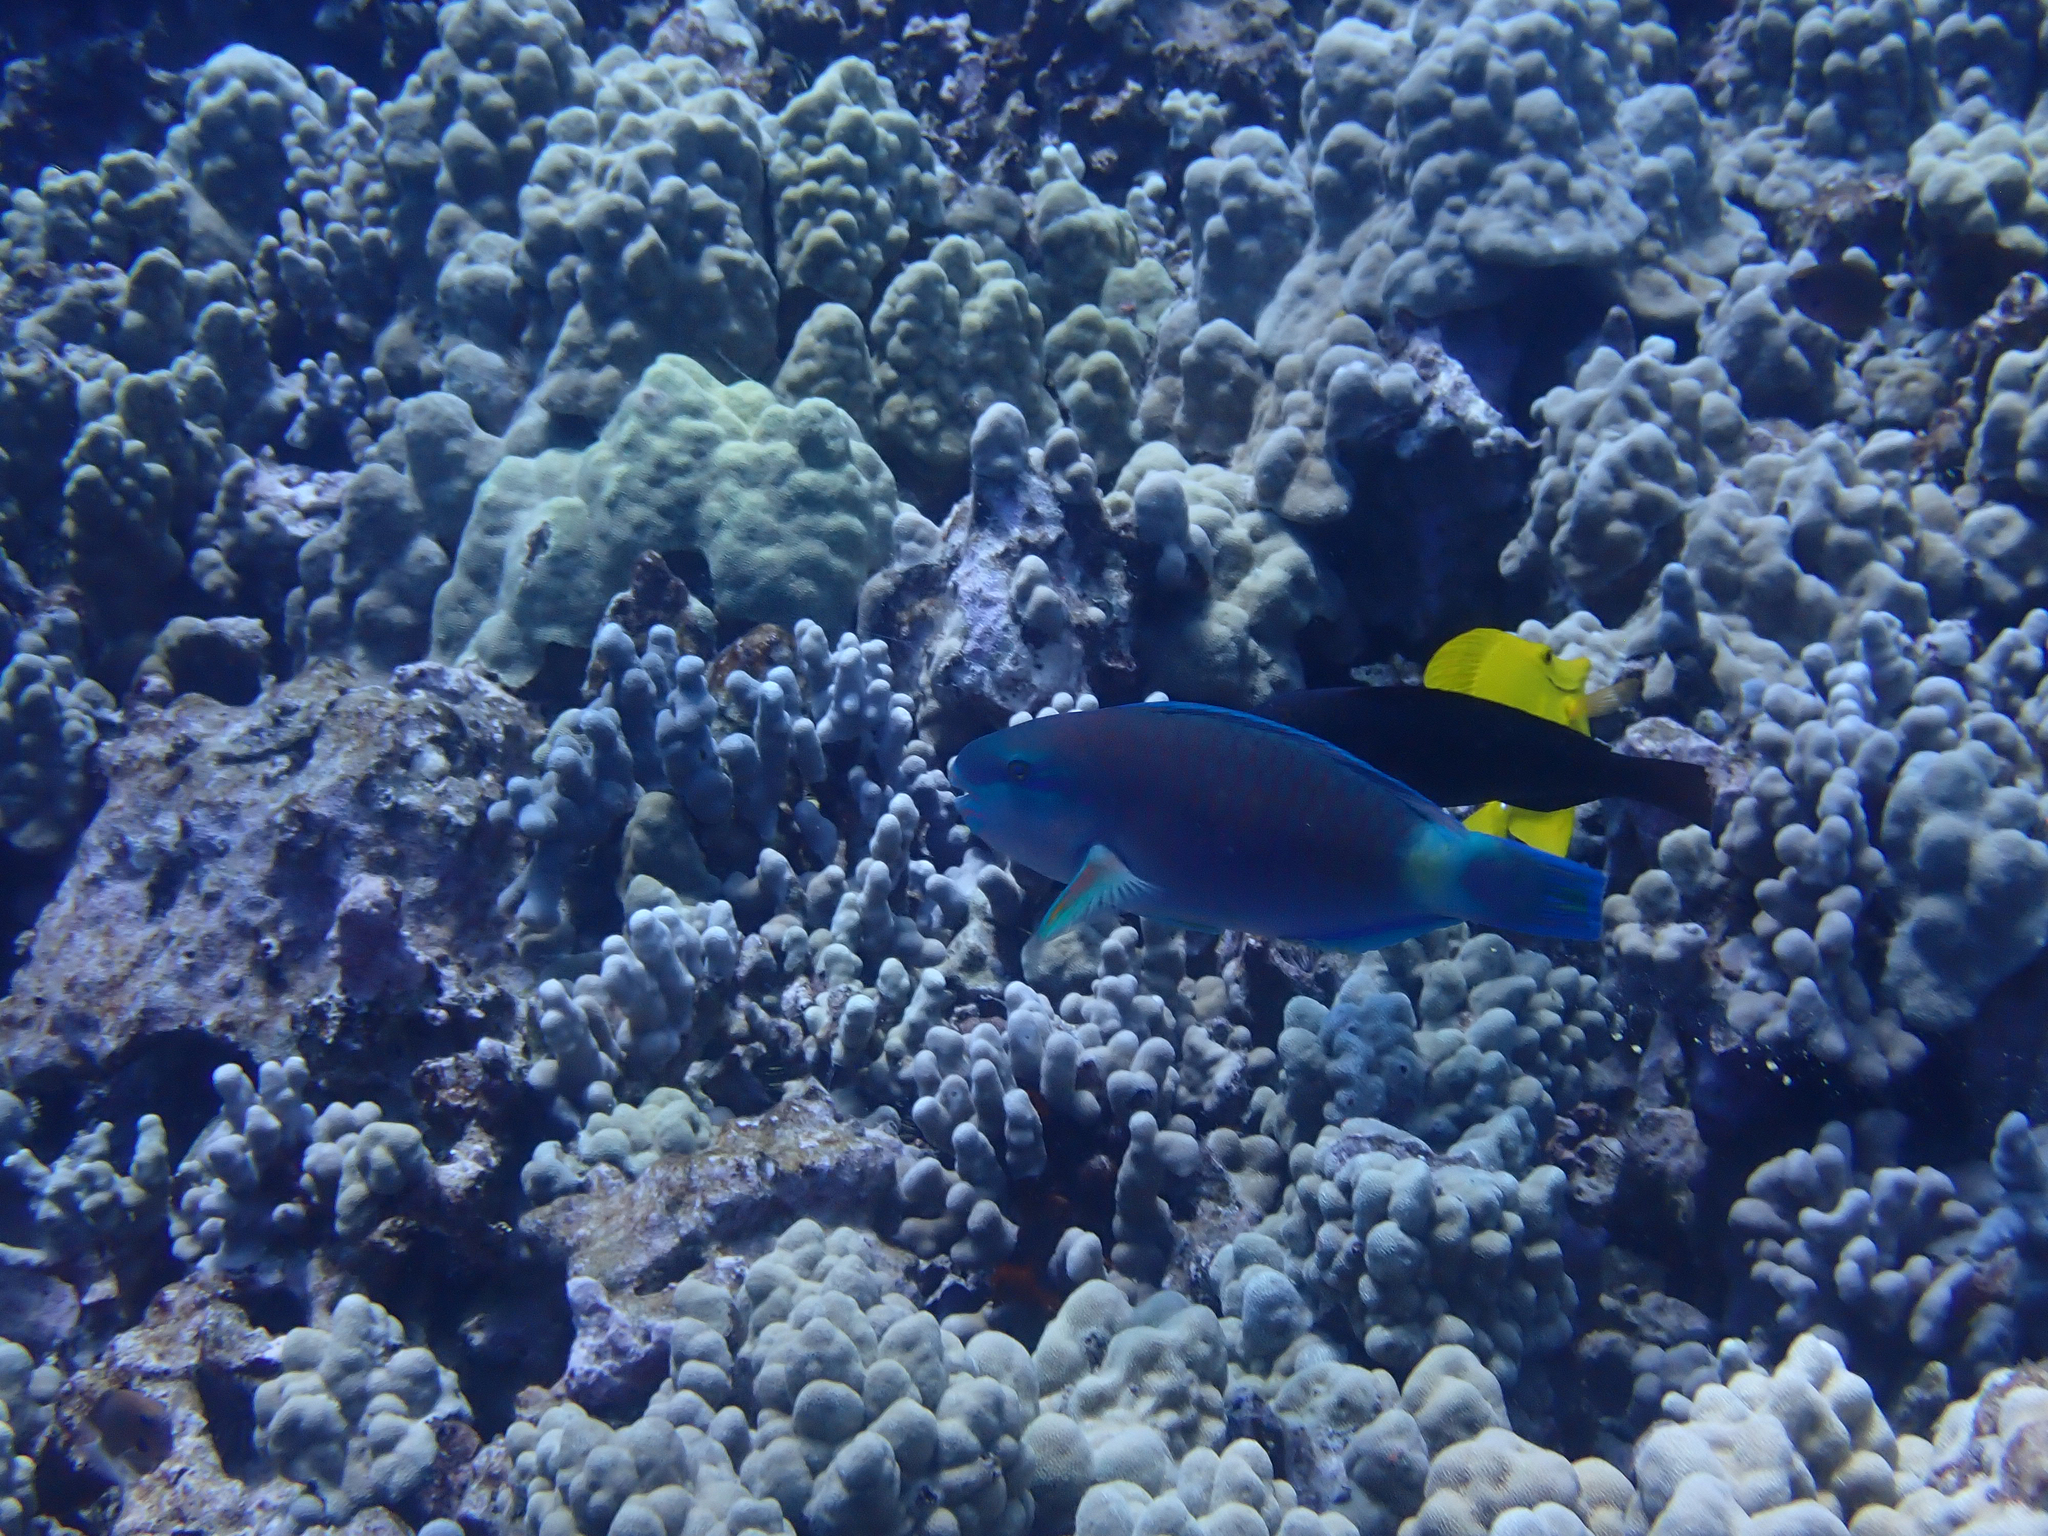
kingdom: Animalia
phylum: Chordata
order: Perciformes
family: Scaridae
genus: Chlorurus
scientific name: Chlorurus spilurus
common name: Bullethead parrotfish
